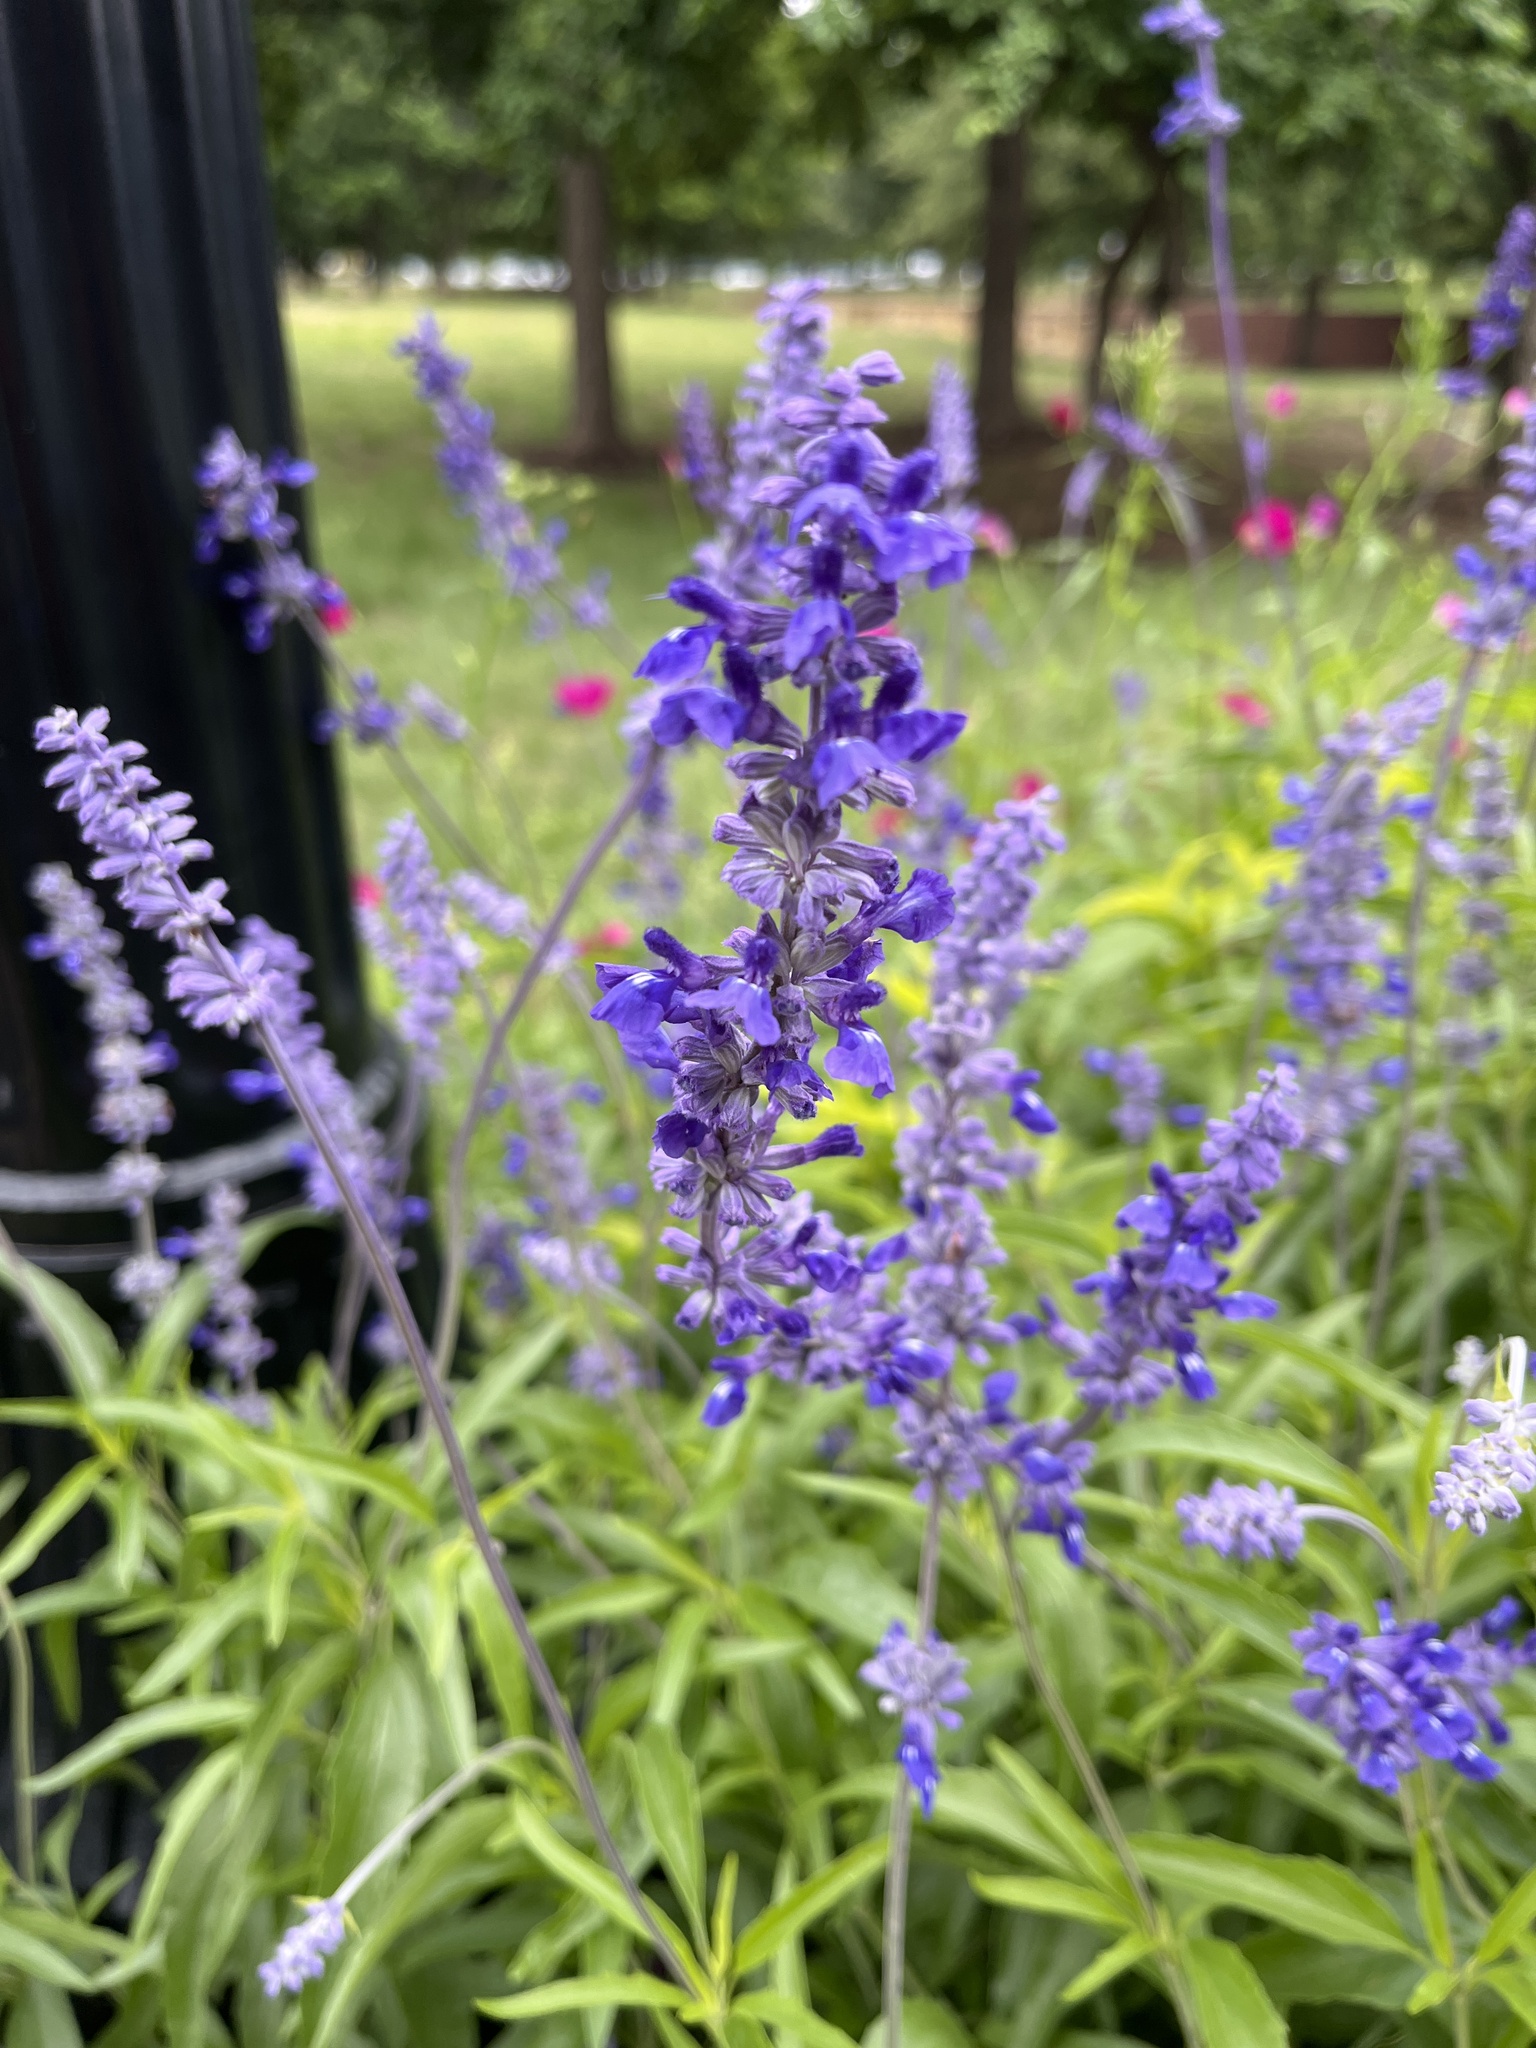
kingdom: Plantae
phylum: Tracheophyta
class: Magnoliopsida
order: Lamiales
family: Lamiaceae
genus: Salvia
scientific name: Salvia farinacea
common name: Mealy sage
